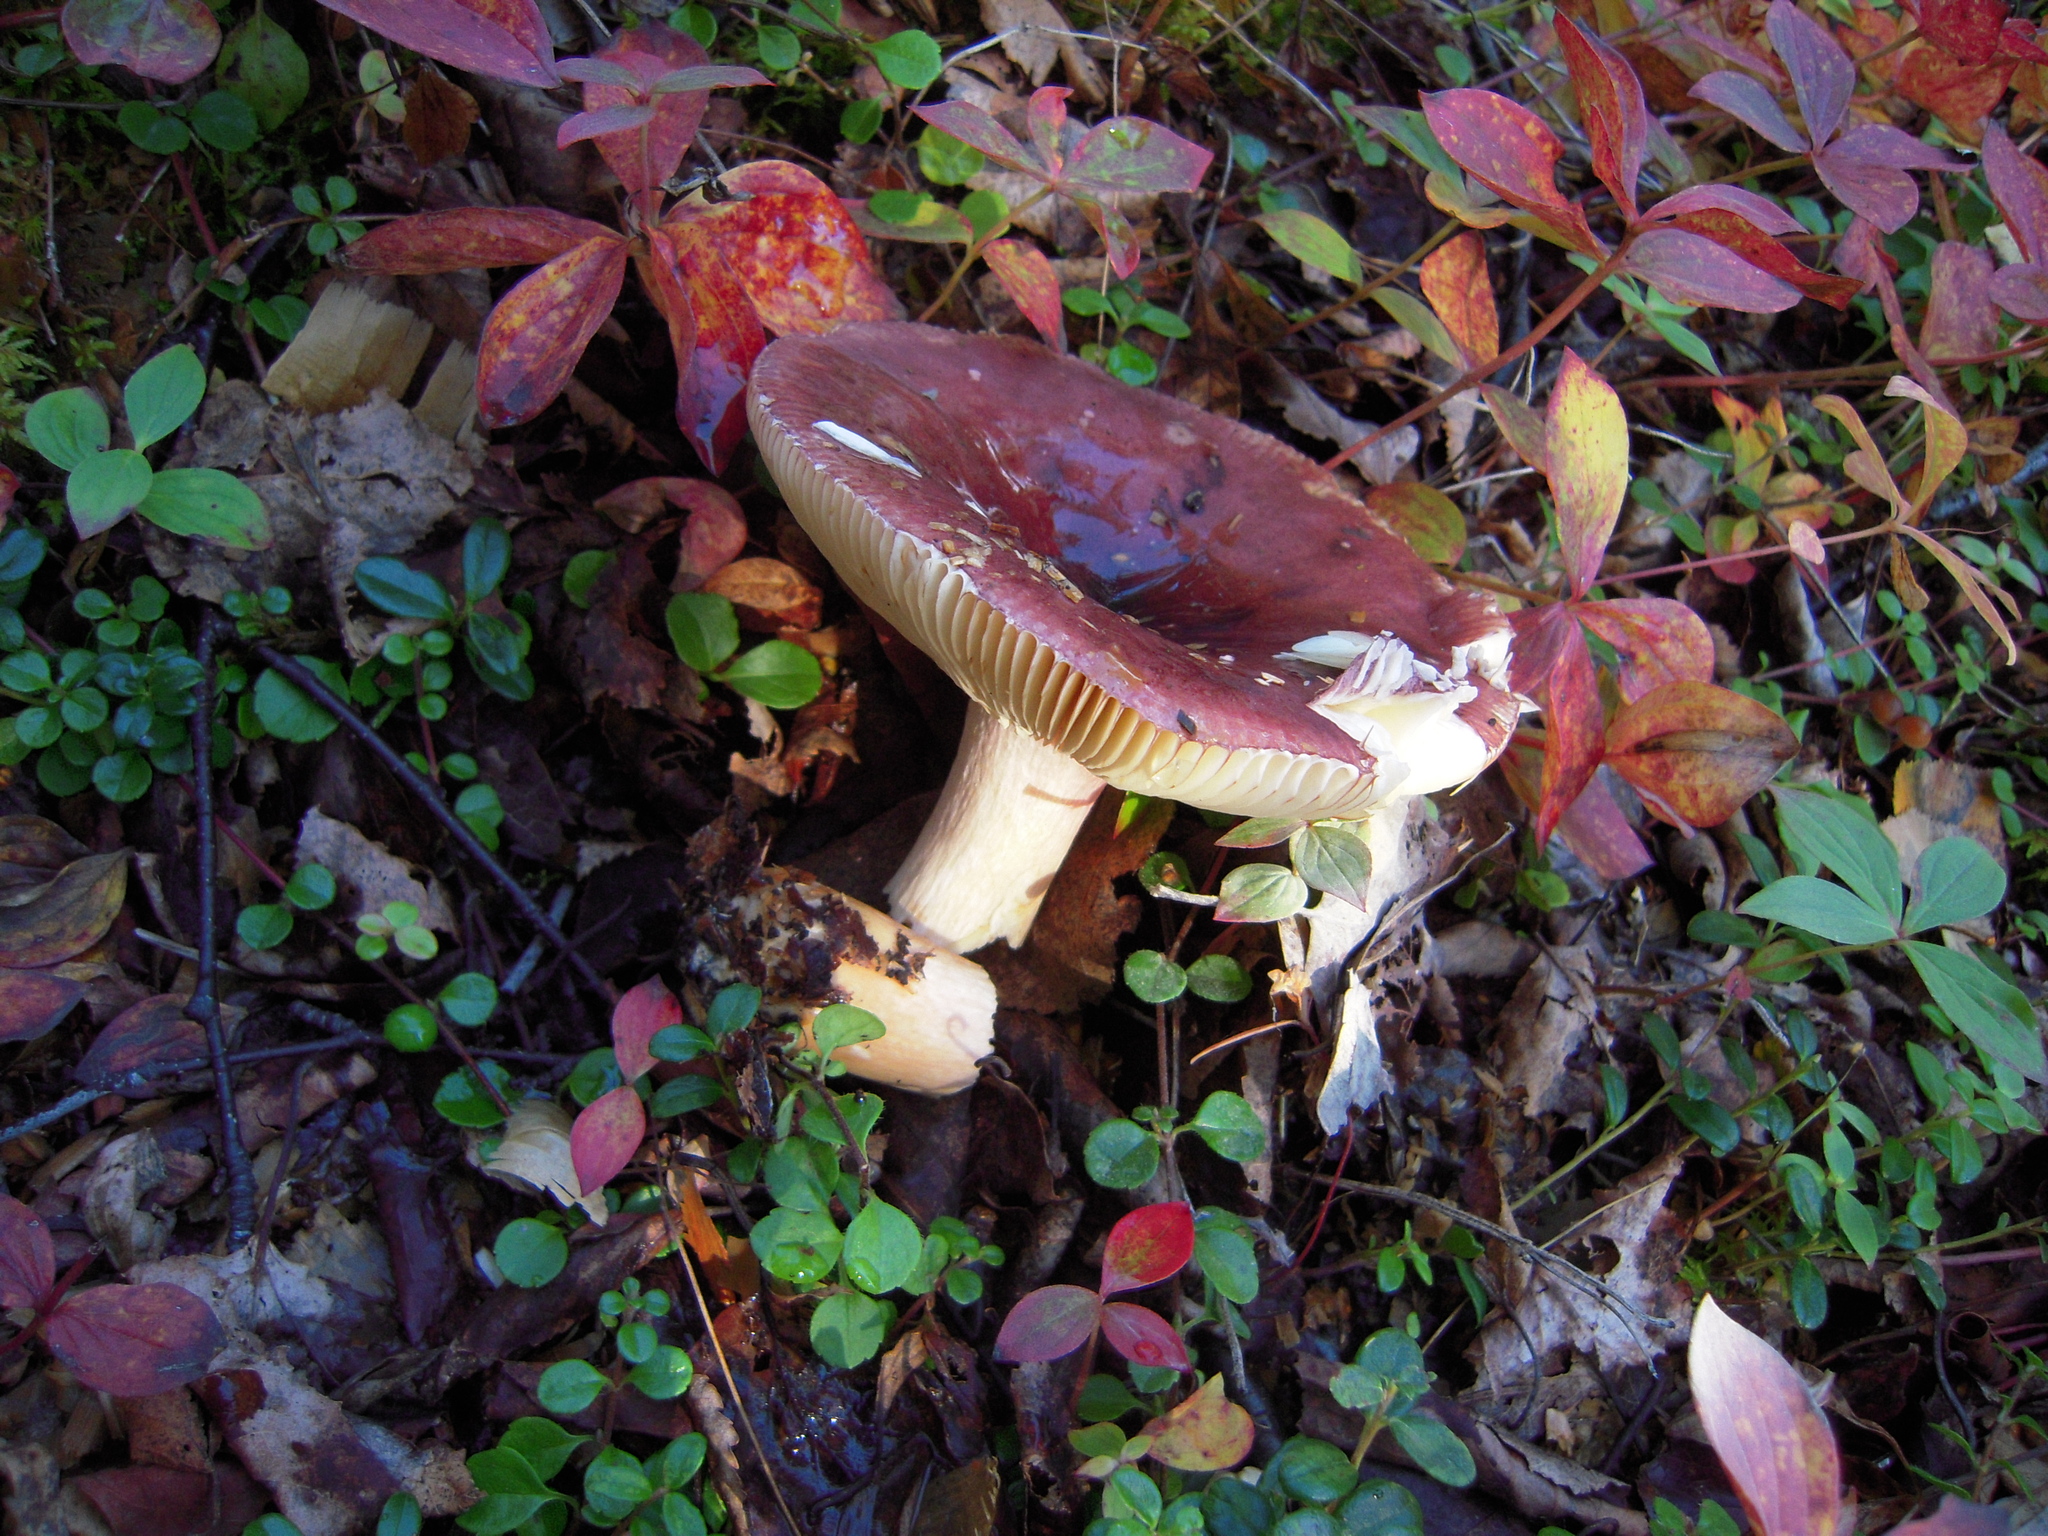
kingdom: Fungi
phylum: Basidiomycota
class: Agaricomycetes
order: Russulales
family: Russulaceae
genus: Russula
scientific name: Russula xerampelina
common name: Crab brittlegill
